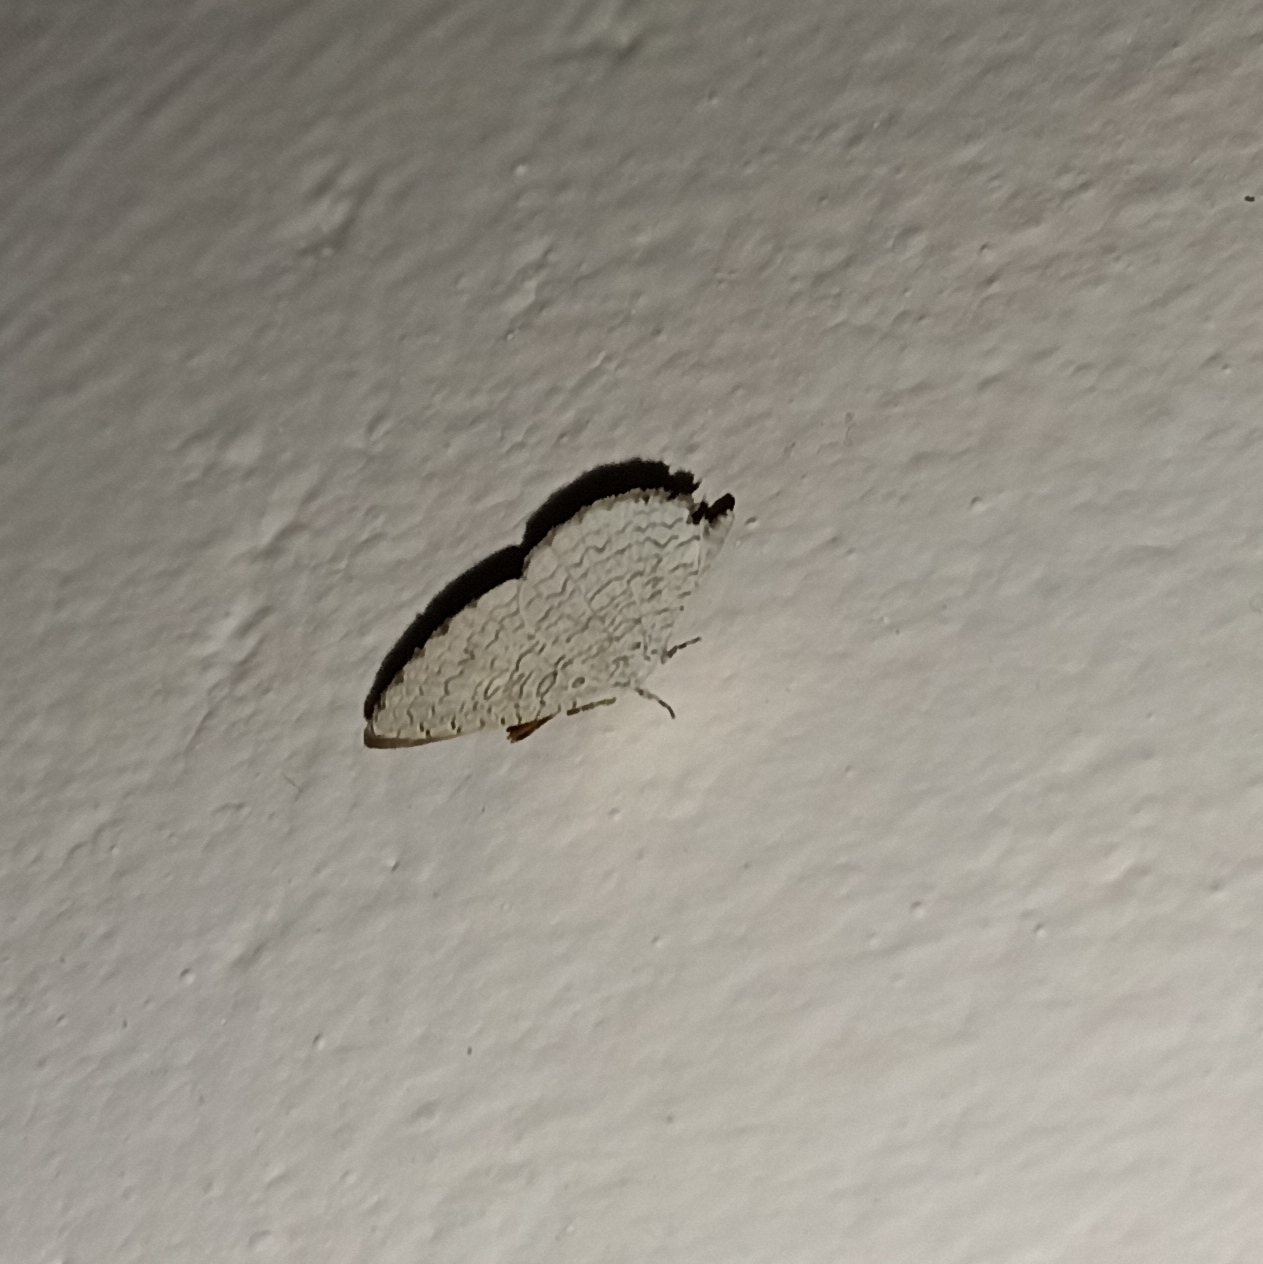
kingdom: Animalia
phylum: Arthropoda
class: Insecta
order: Lepidoptera
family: Lycaenidae
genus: Spalgis
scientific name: Spalgis epius
